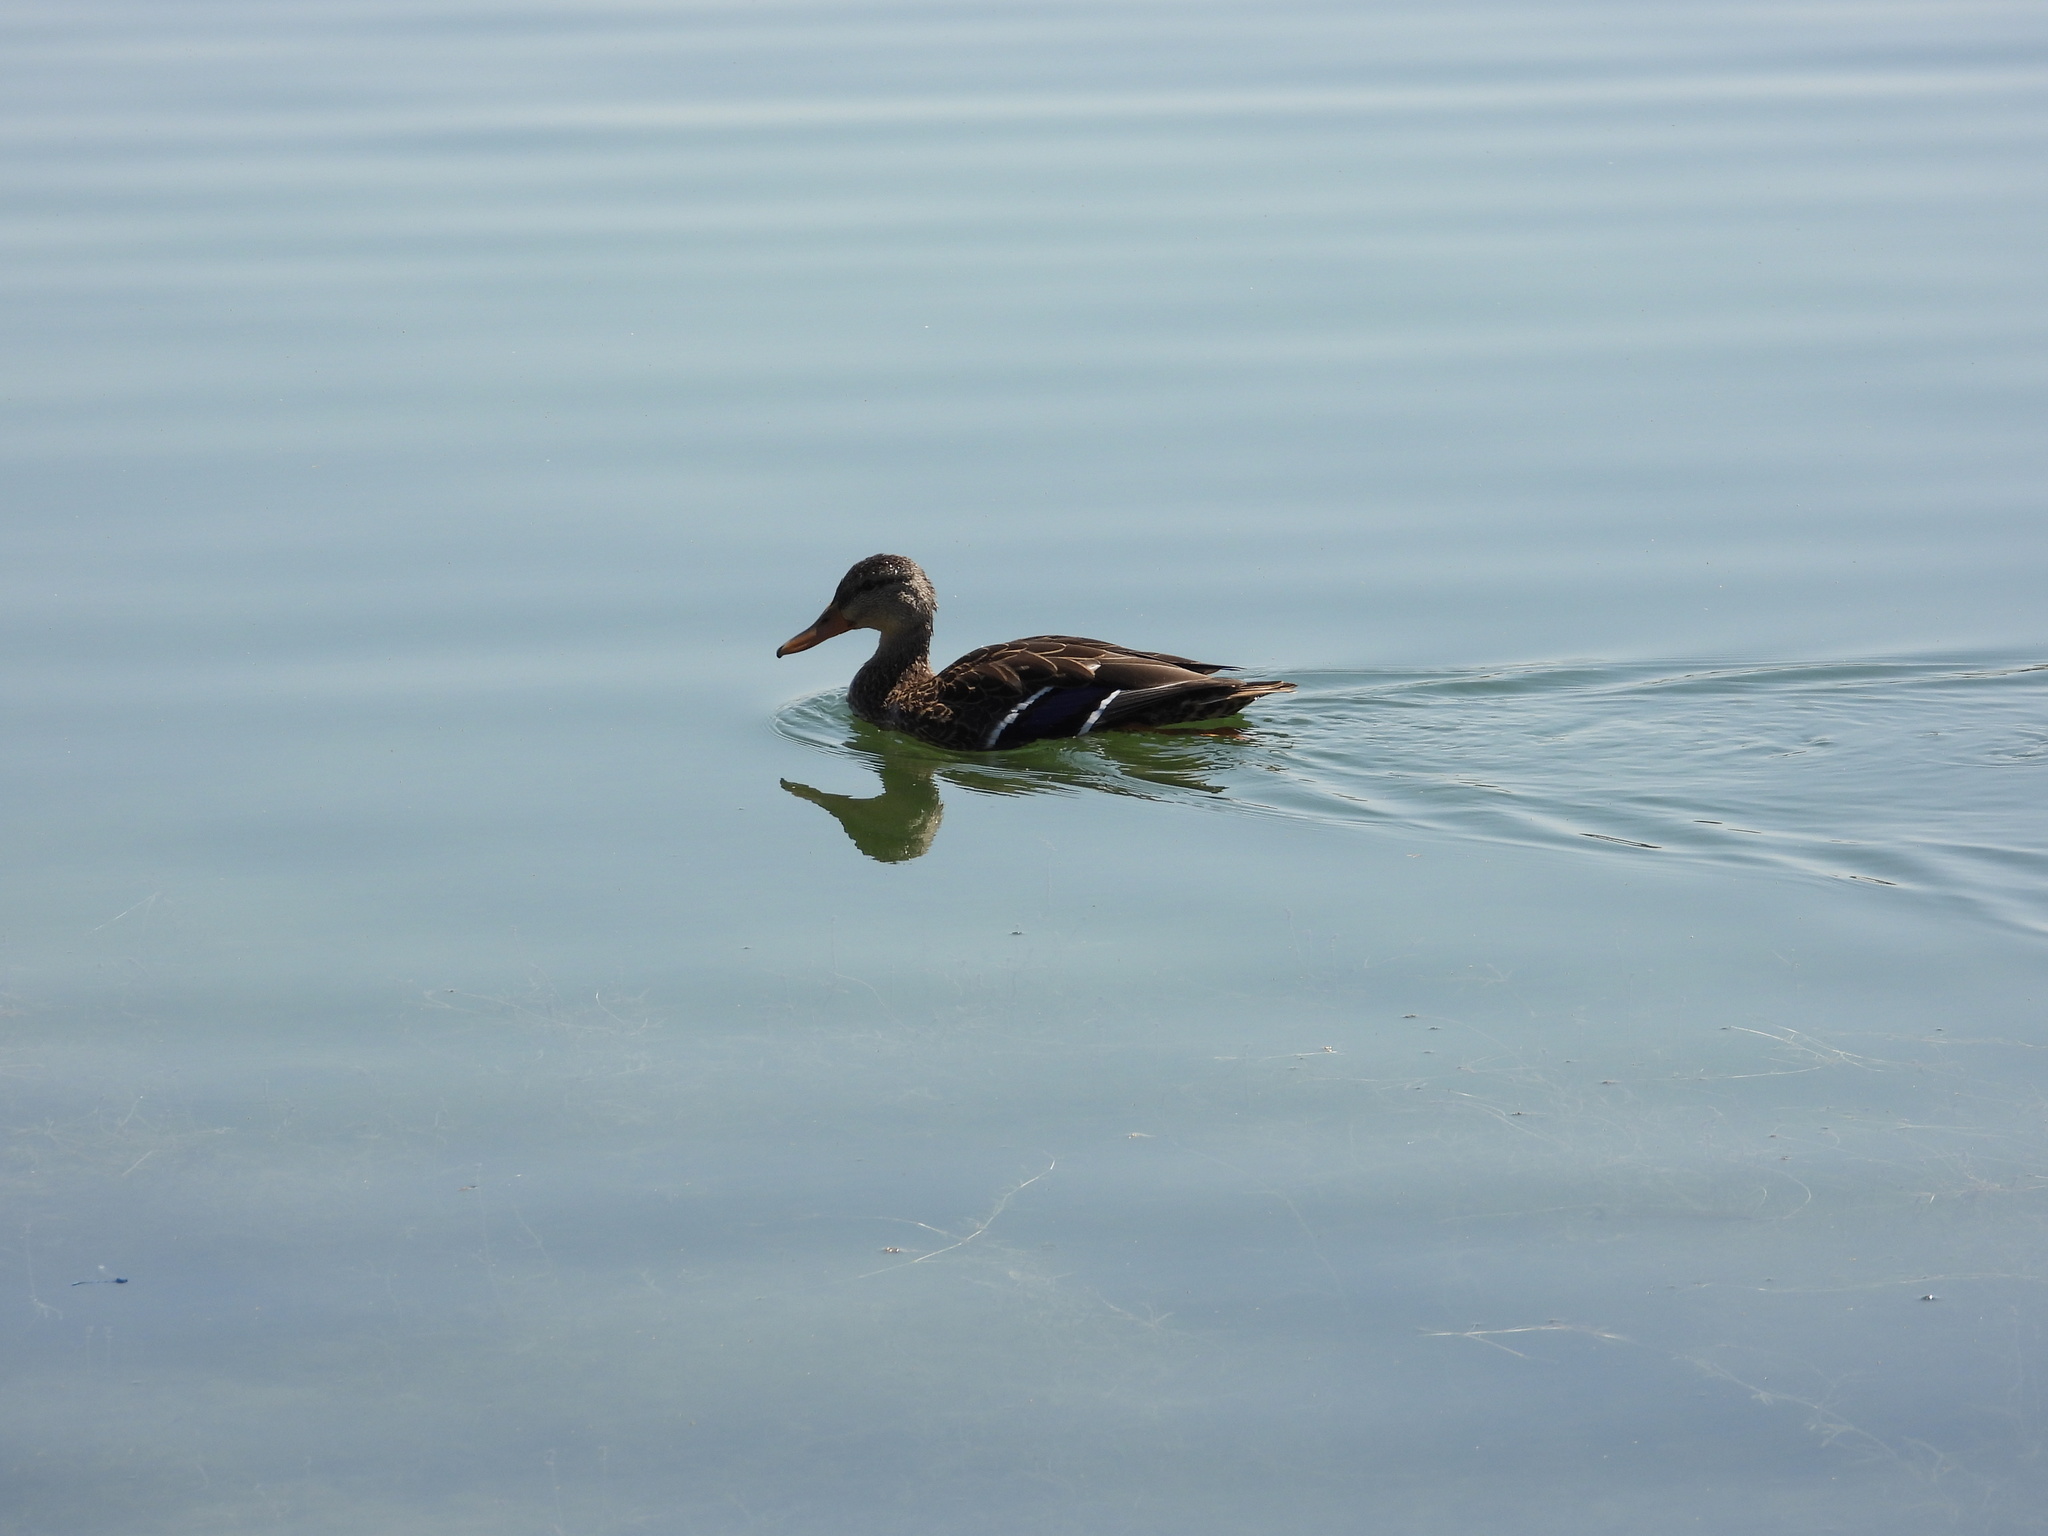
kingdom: Animalia
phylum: Chordata
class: Aves
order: Anseriformes
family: Anatidae
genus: Anas
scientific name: Anas diazi
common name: Mexican duck
